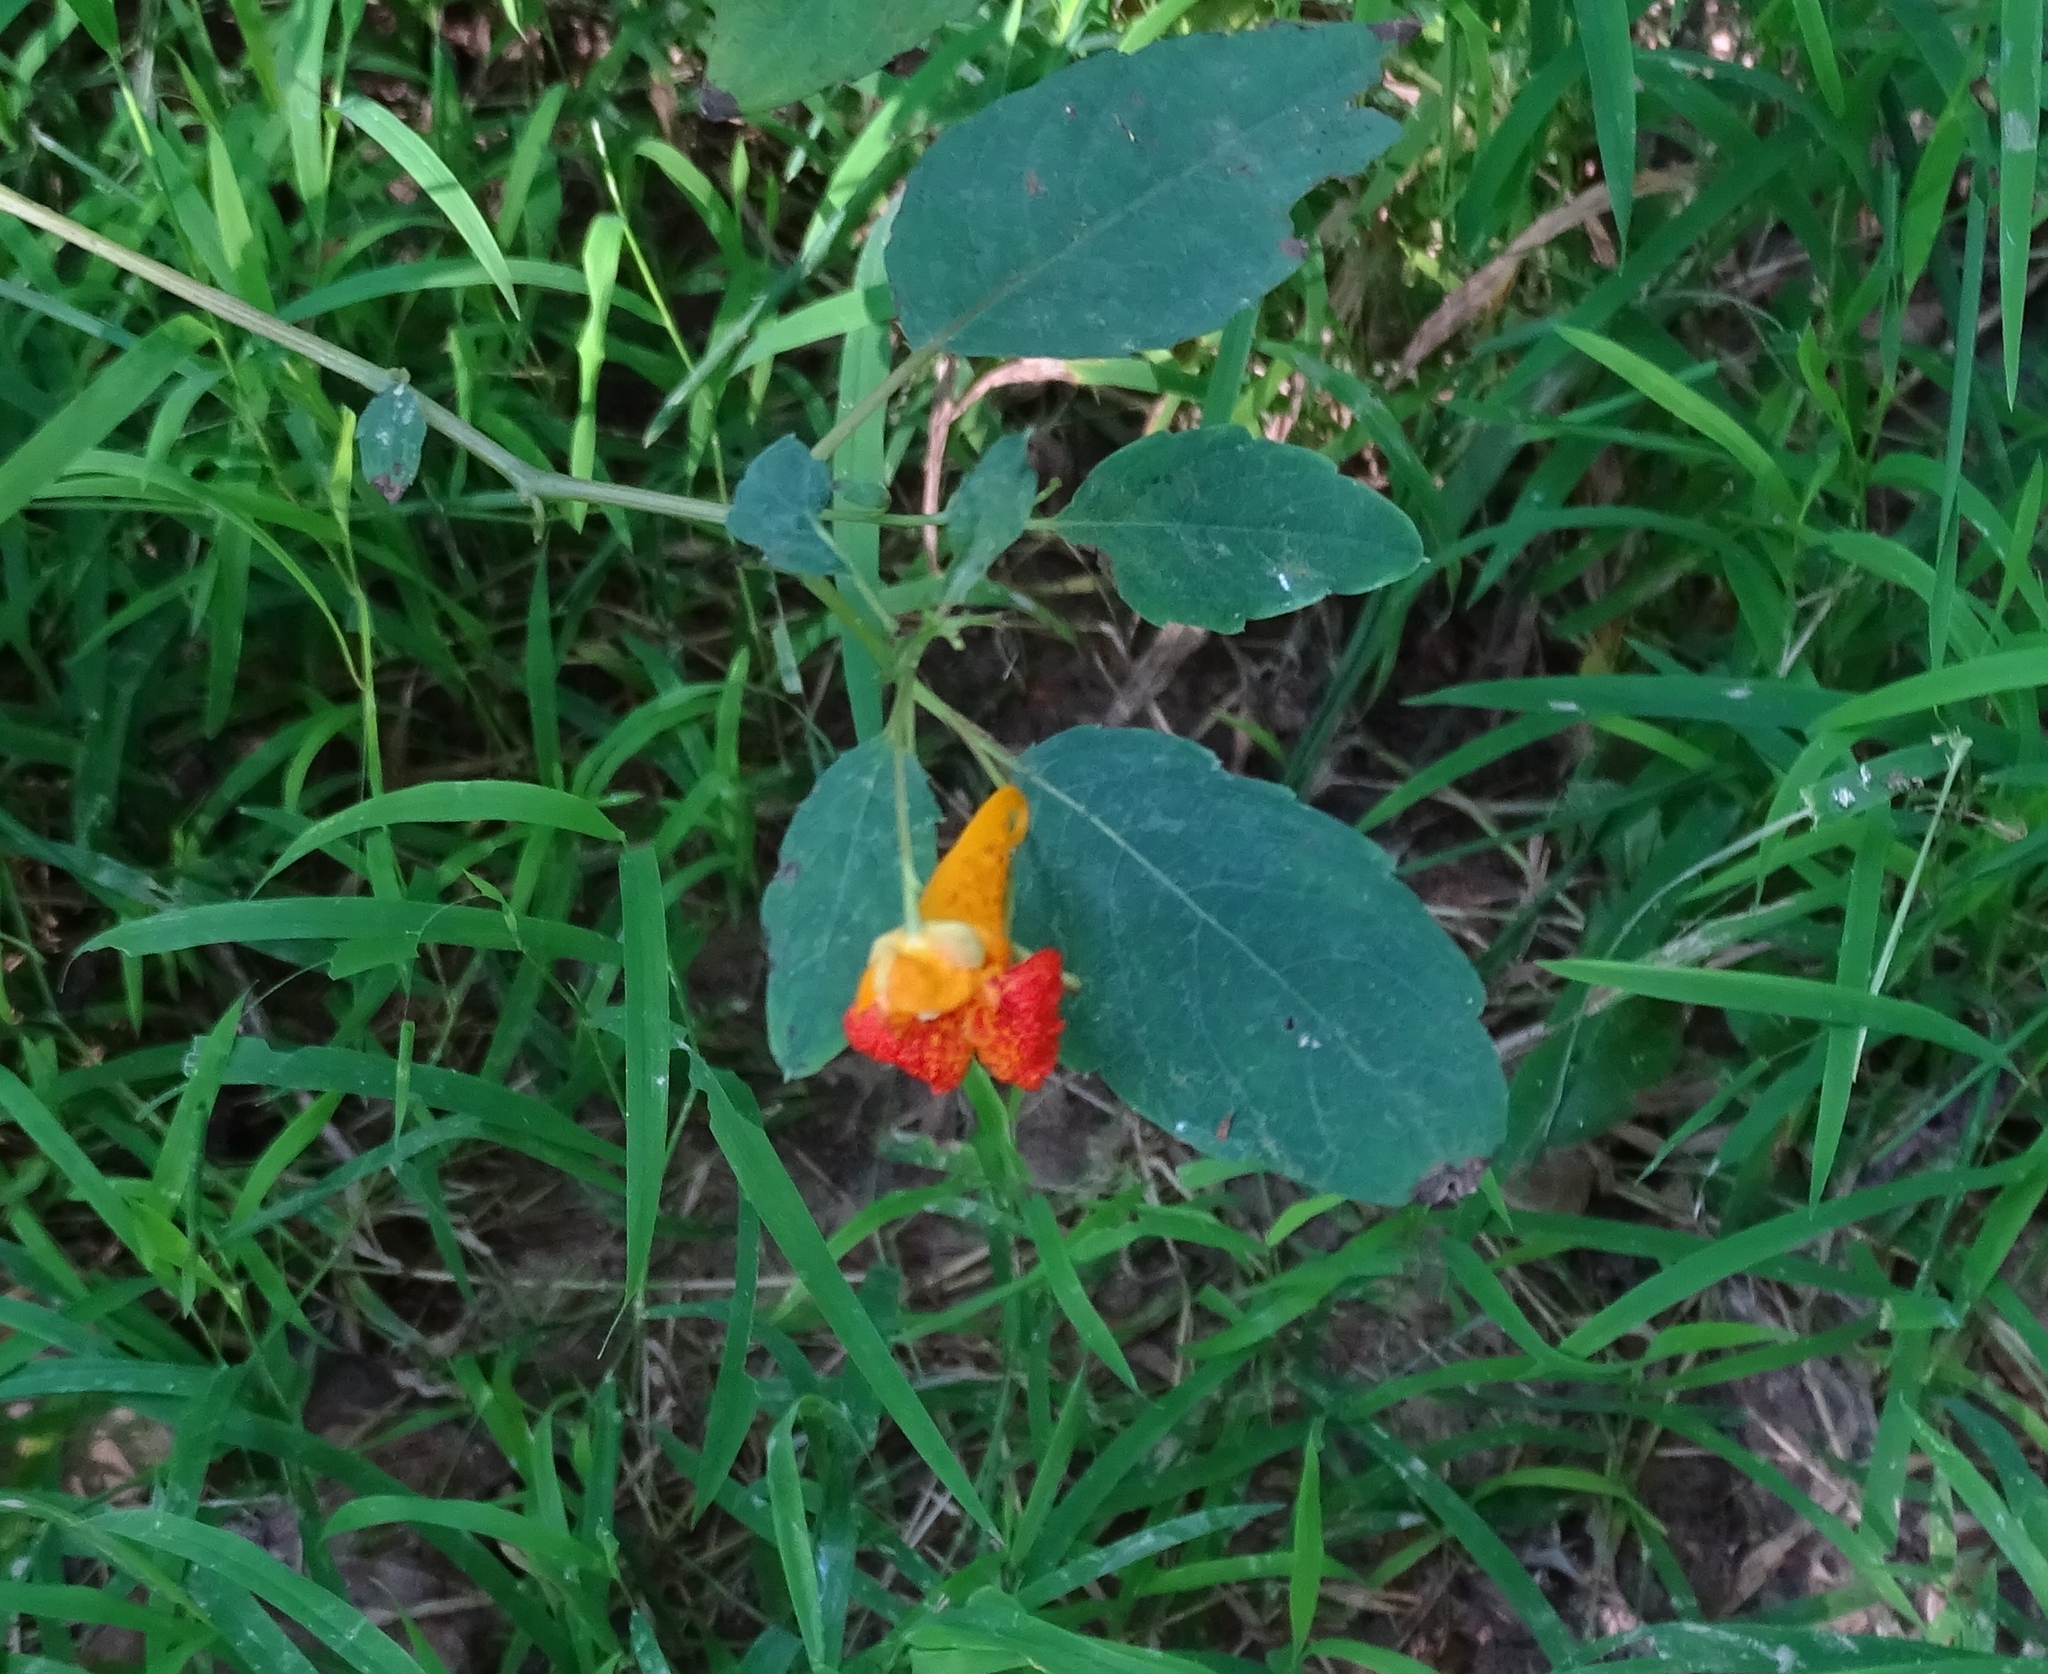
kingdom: Plantae
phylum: Tracheophyta
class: Magnoliopsida
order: Ericales
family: Balsaminaceae
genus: Impatiens
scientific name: Impatiens capensis
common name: Orange balsam
